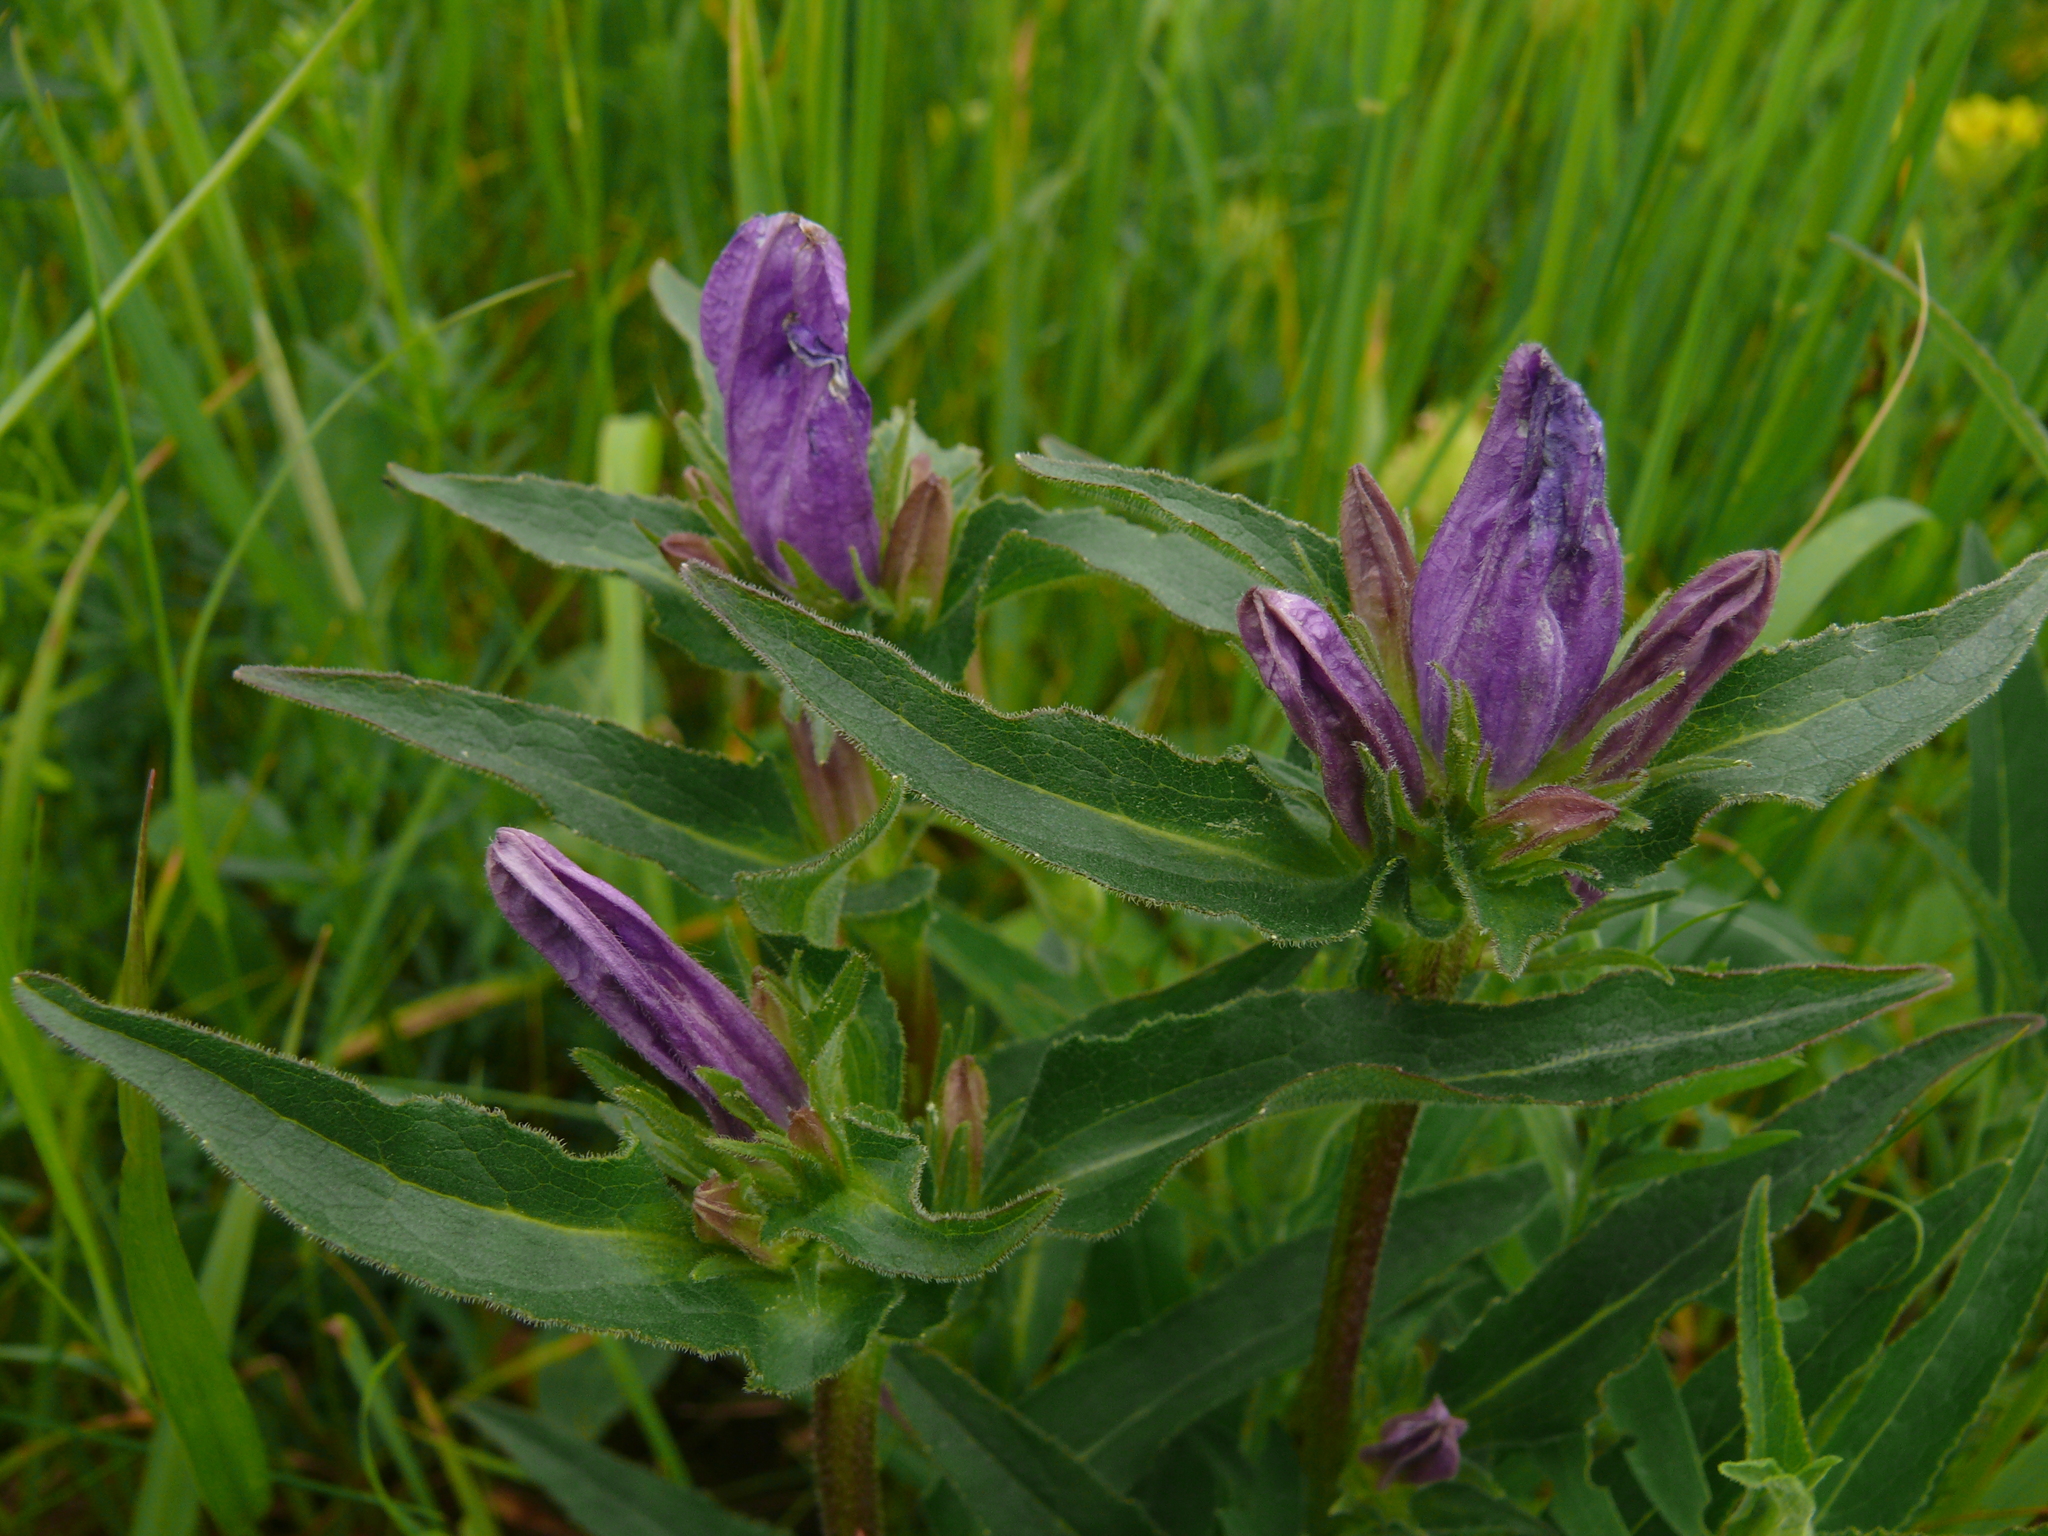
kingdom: Plantae
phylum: Tracheophyta
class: Magnoliopsida
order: Asterales
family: Campanulaceae
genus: Campanula
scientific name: Campanula glomerata
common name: Clustered bellflower
